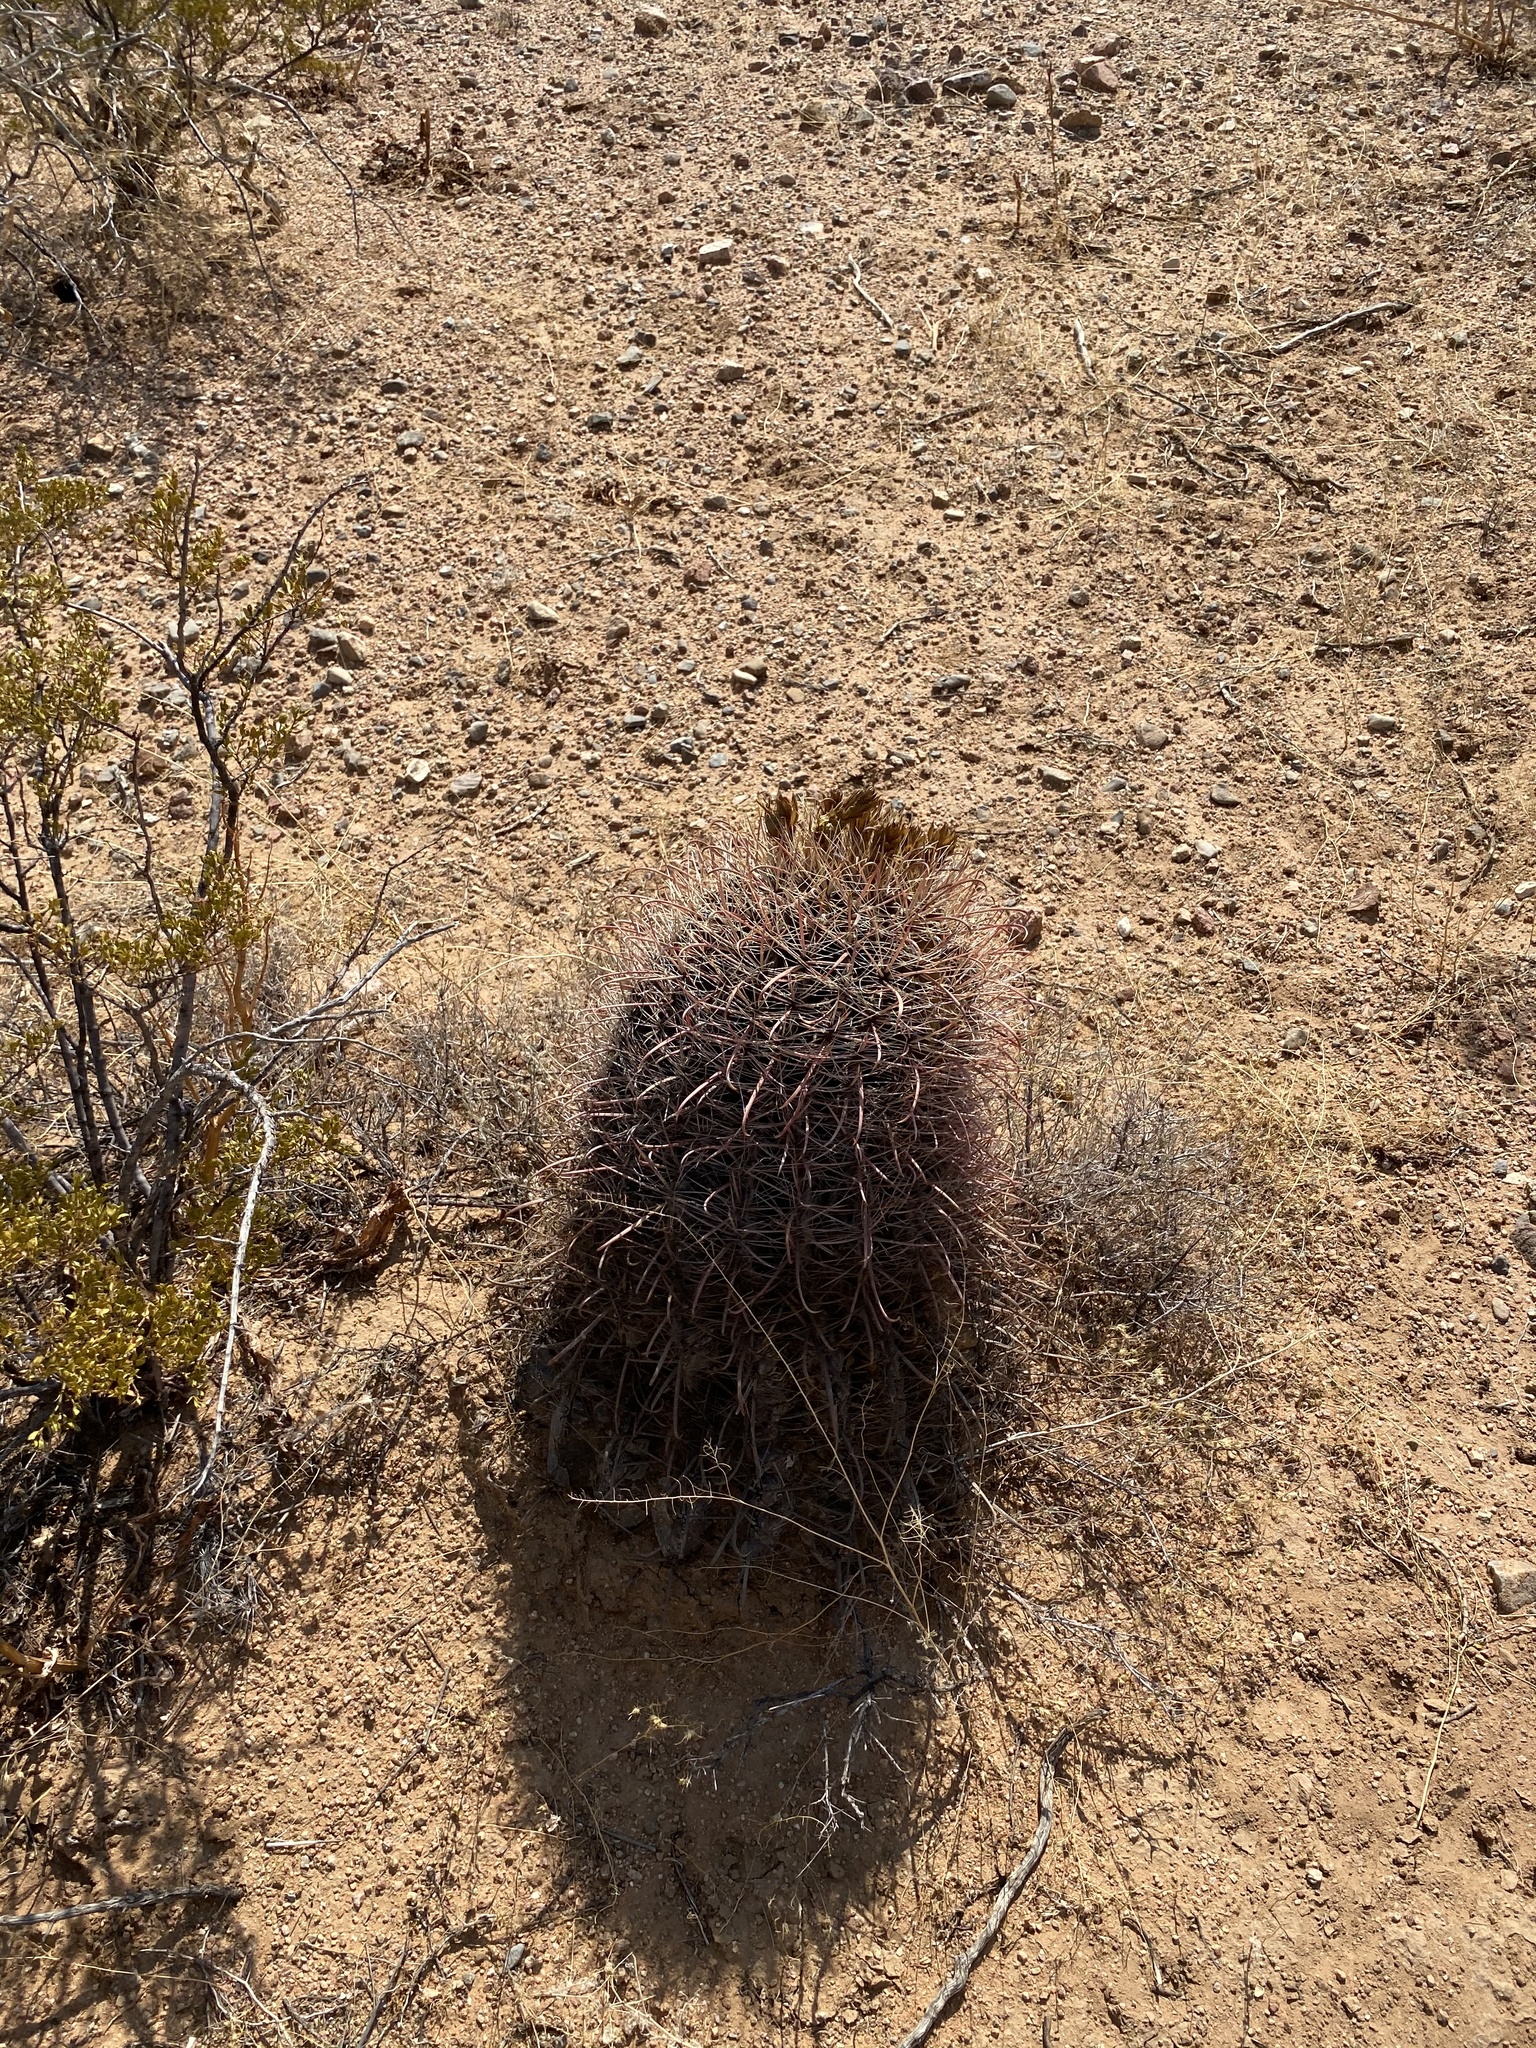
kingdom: Plantae
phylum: Tracheophyta
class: Magnoliopsida
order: Caryophyllales
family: Cactaceae
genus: Ferocactus
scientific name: Ferocactus wislizeni
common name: Candy barrel cactus
